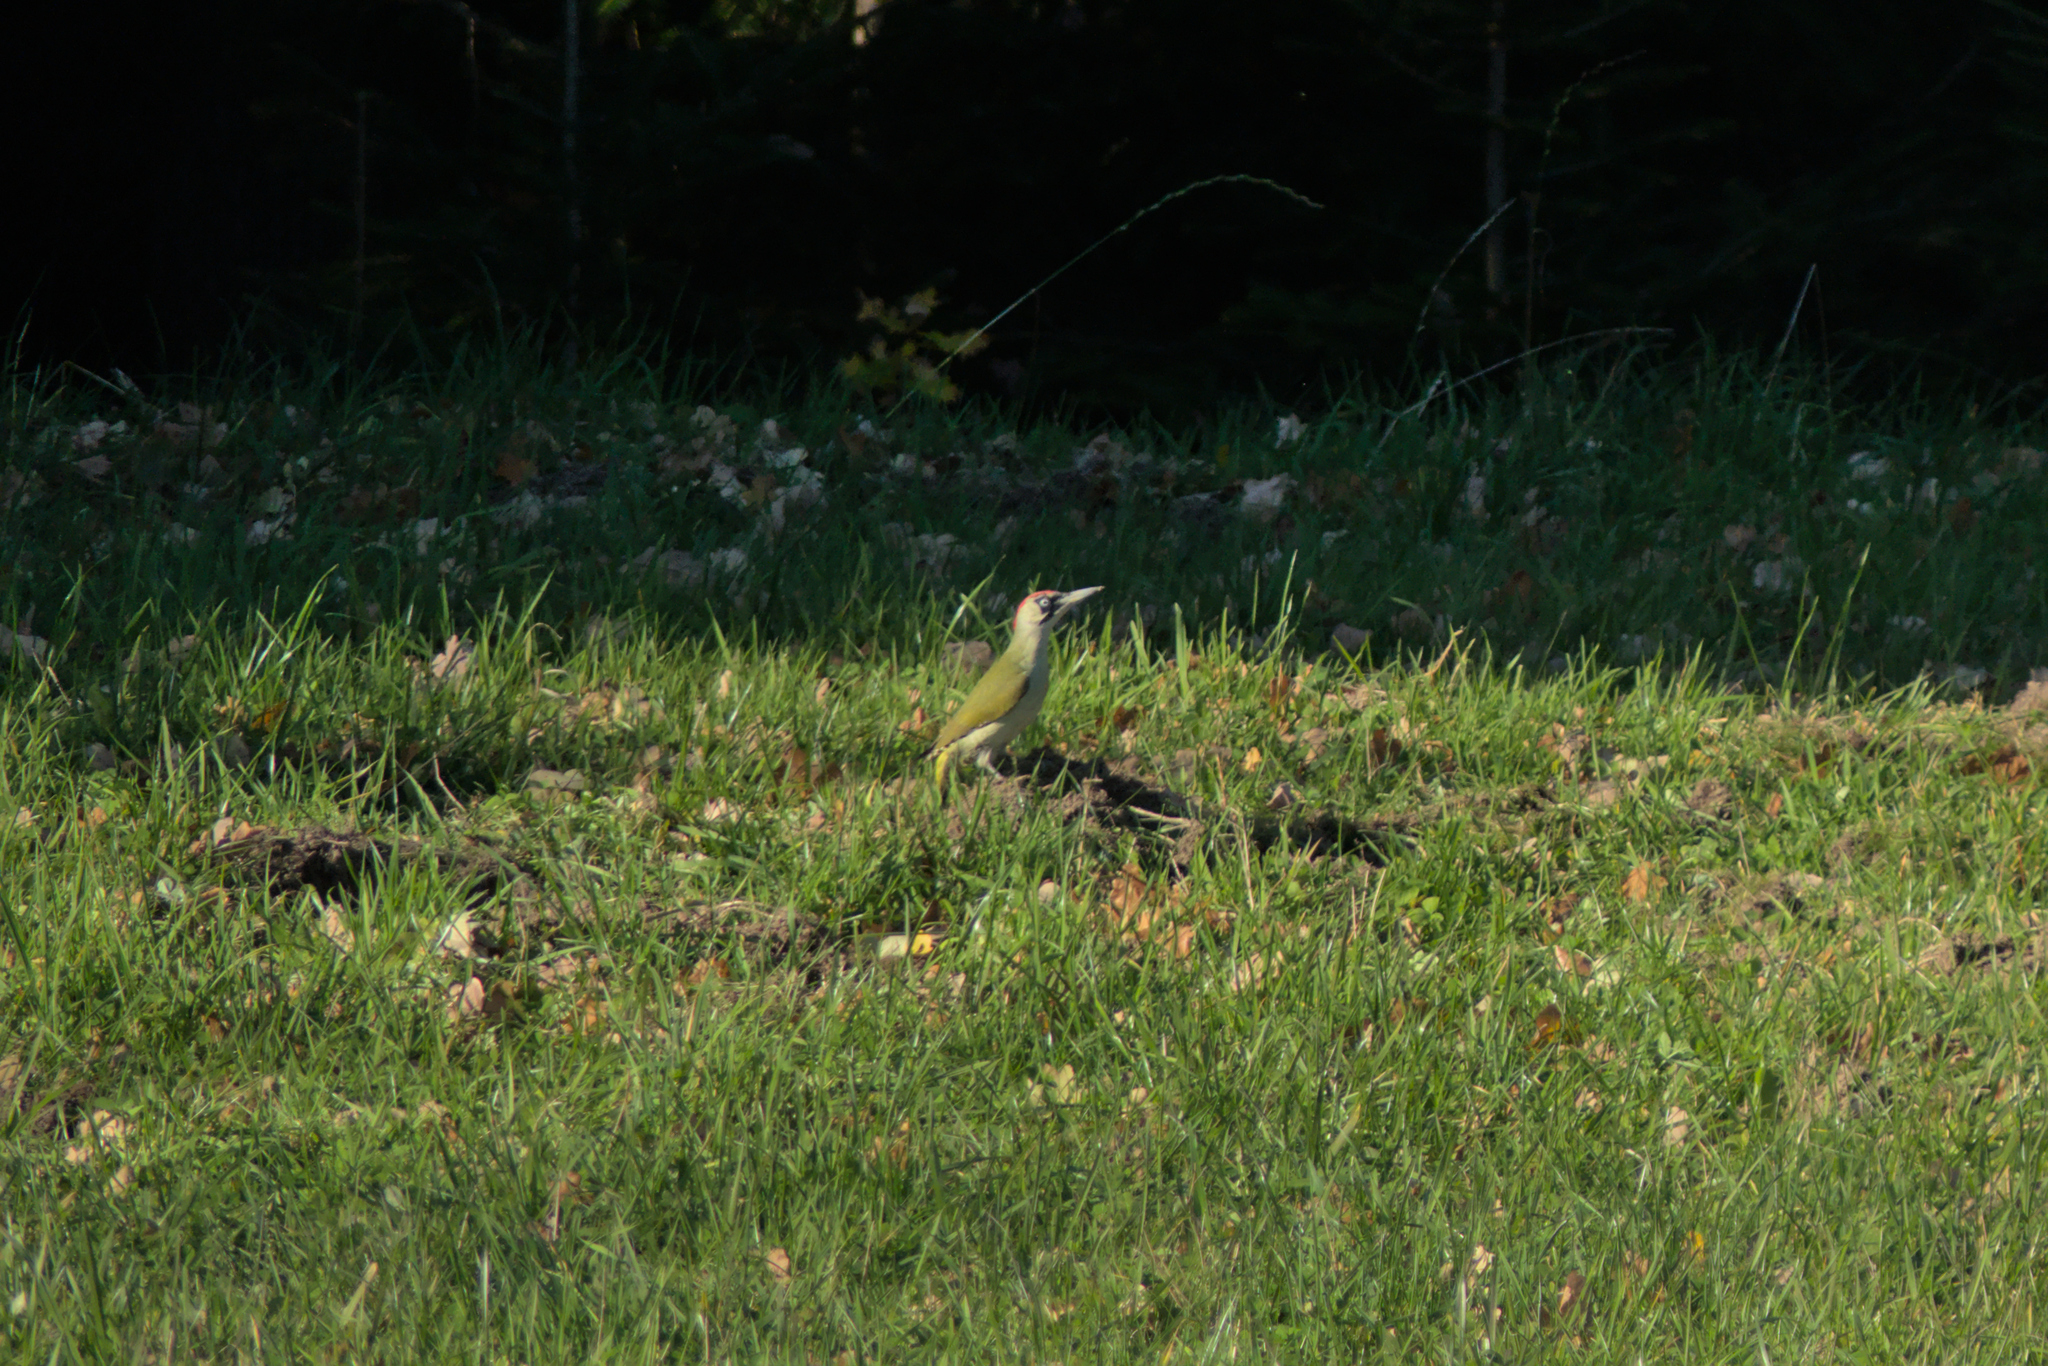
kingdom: Animalia
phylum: Chordata
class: Aves
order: Piciformes
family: Picidae
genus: Picus
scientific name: Picus viridis
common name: European green woodpecker
